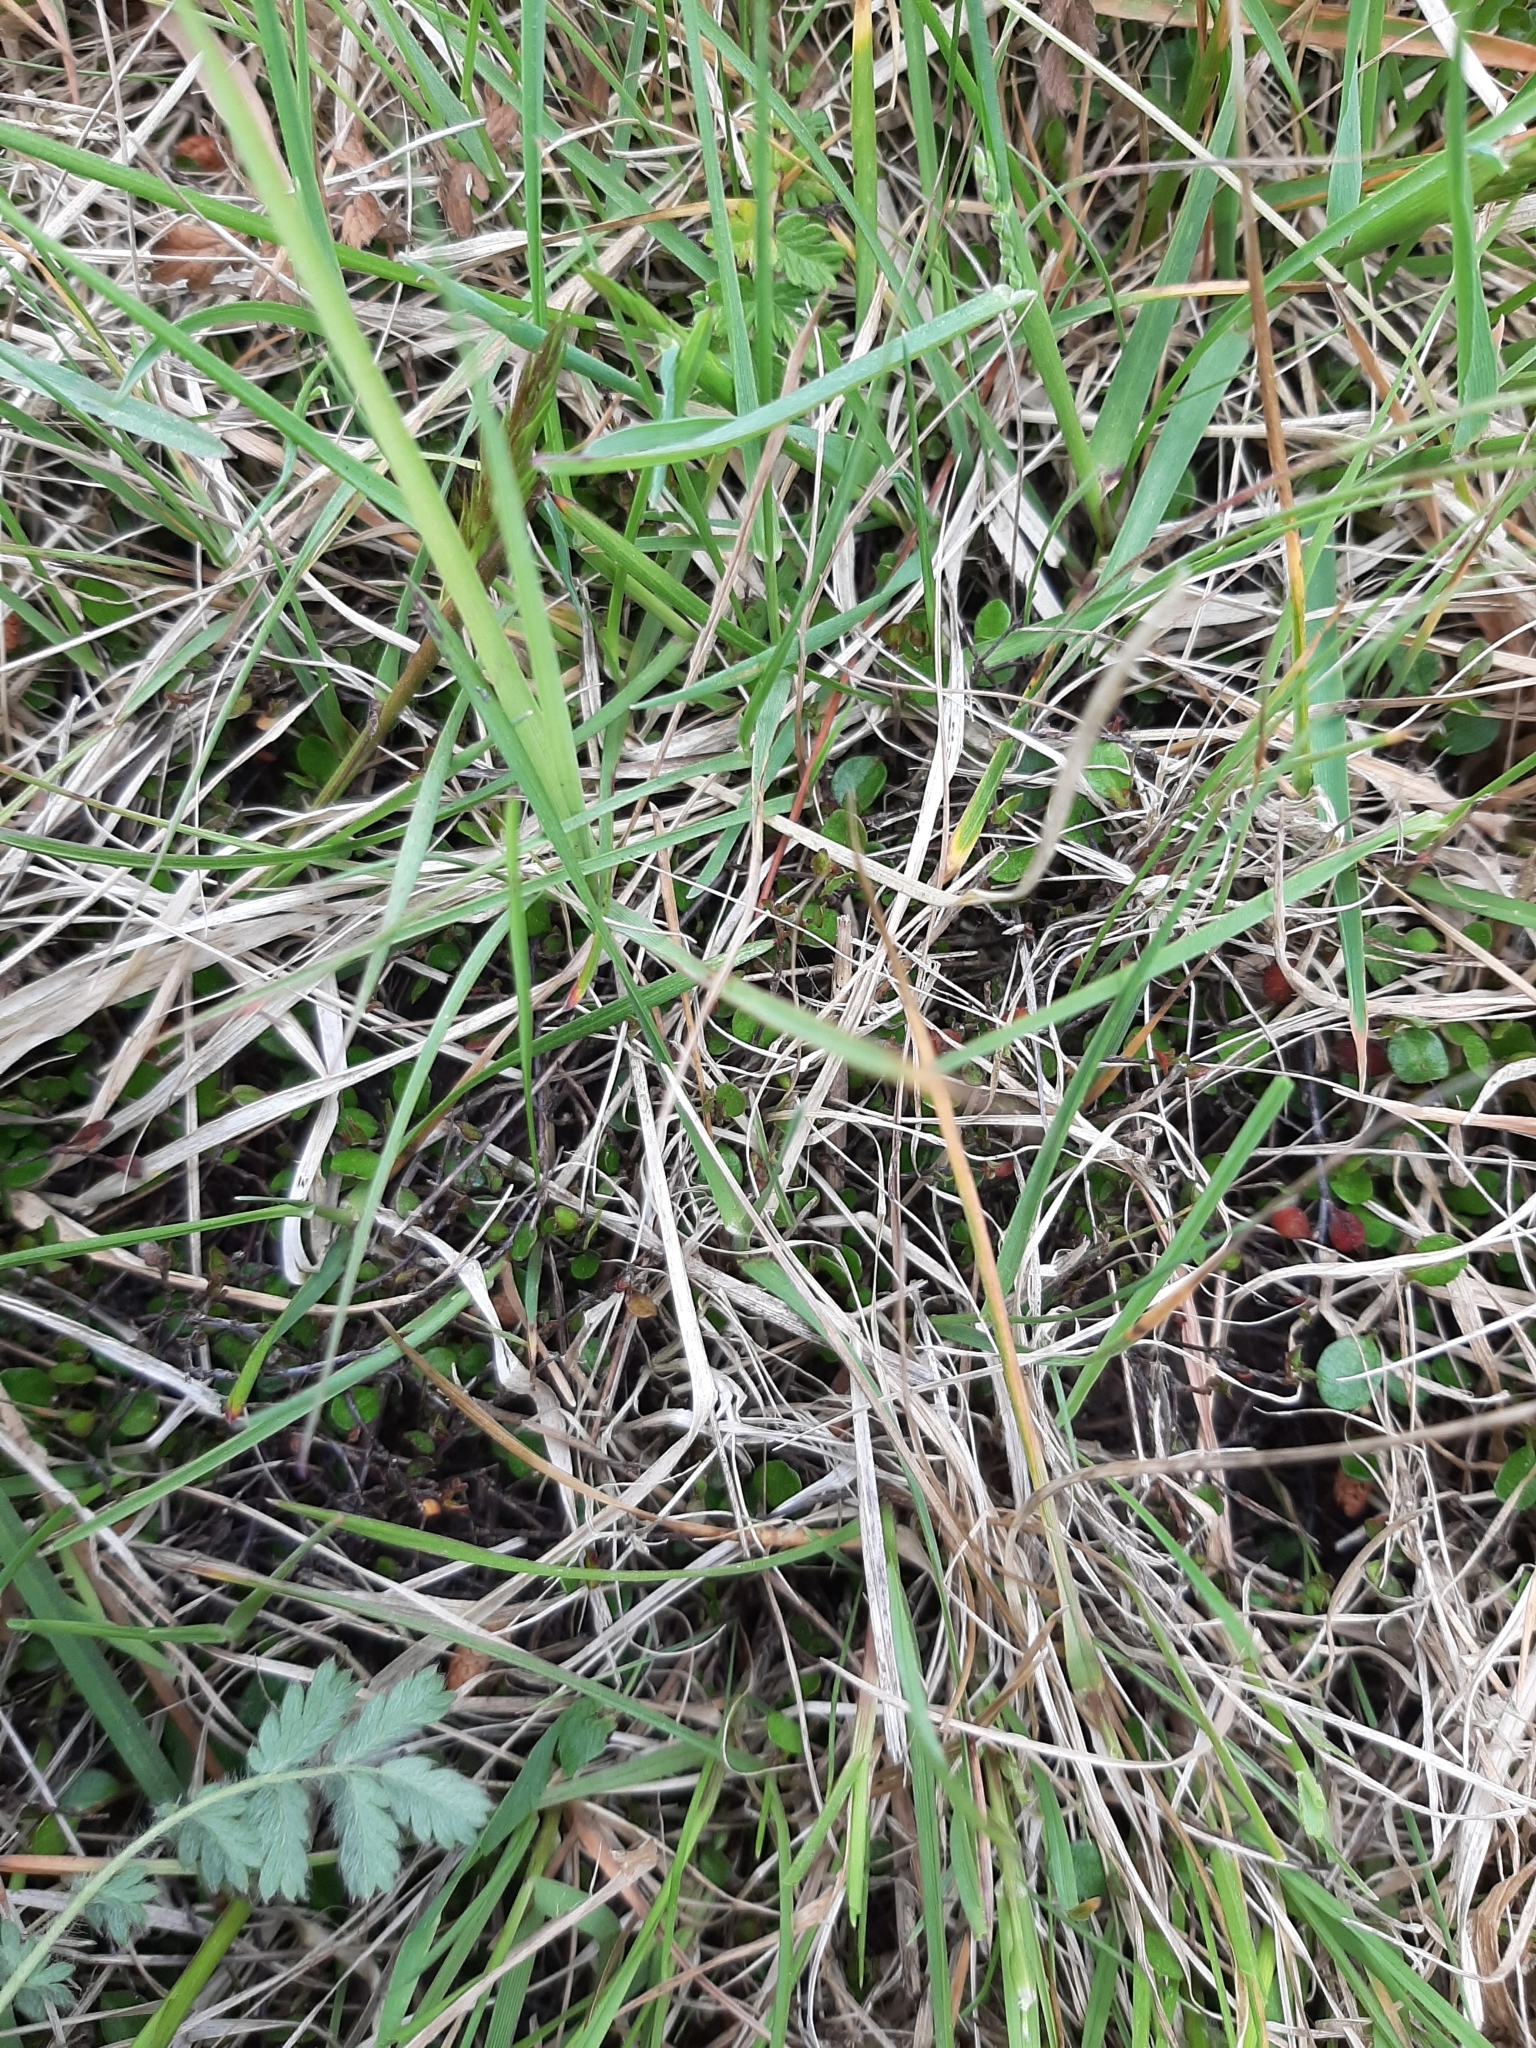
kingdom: Plantae
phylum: Tracheophyta
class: Magnoliopsida
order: Caryophyllales
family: Polygonaceae
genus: Muehlenbeckia
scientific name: Muehlenbeckia axillaris
